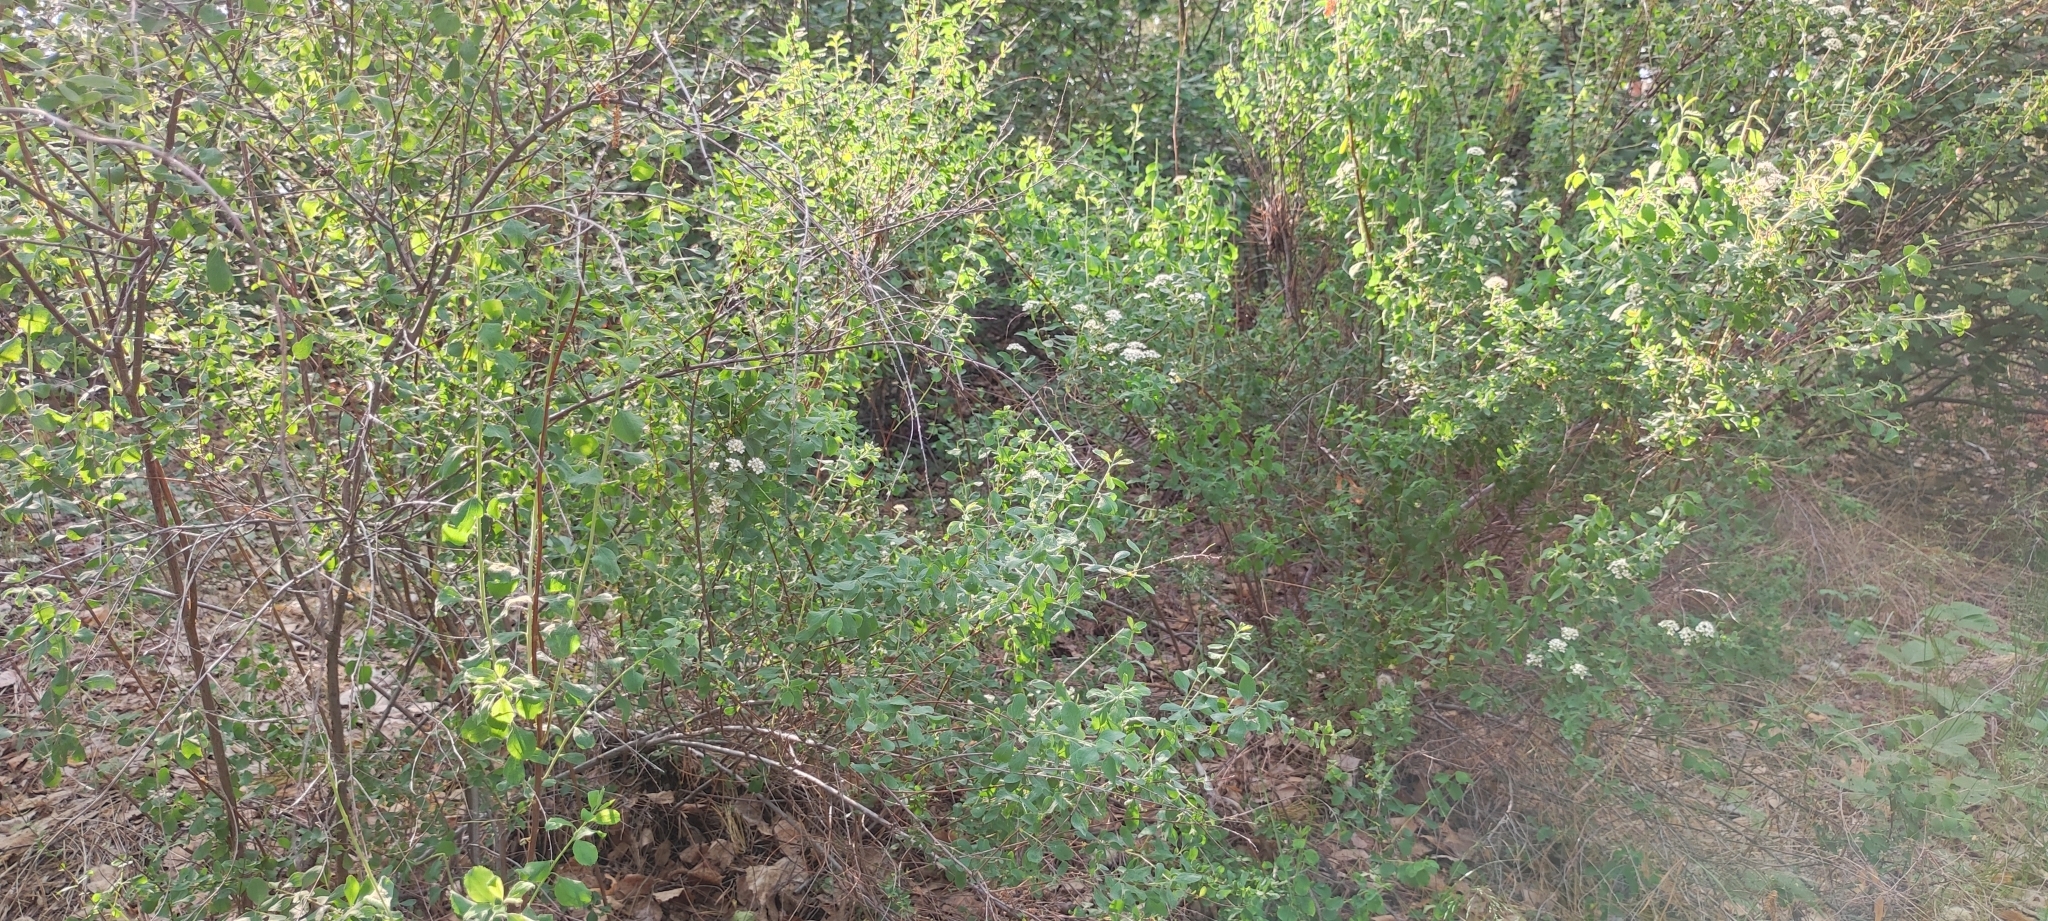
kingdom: Plantae
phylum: Tracheophyta
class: Magnoliopsida
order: Rosales
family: Rosaceae
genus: Spiraea
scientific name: Spiraea crenata
